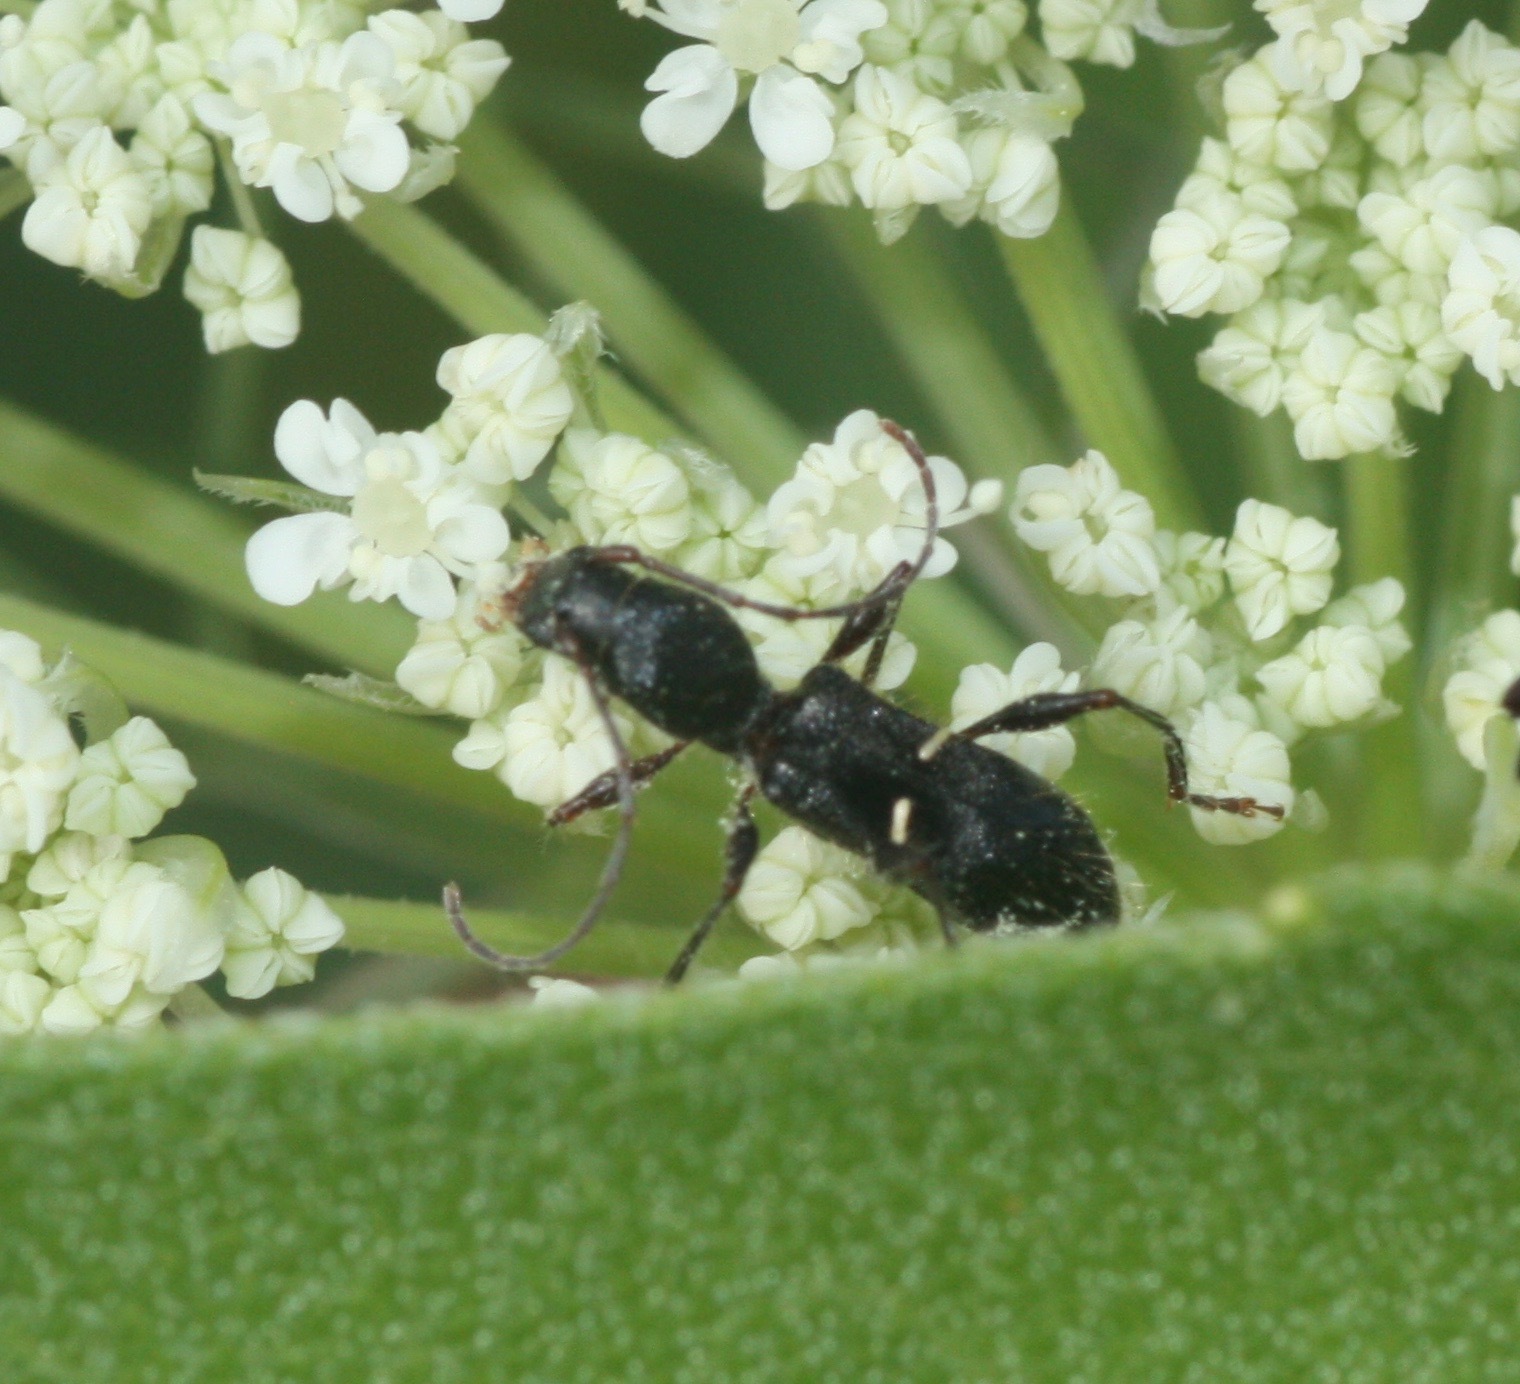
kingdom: Animalia
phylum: Arthropoda
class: Insecta
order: Coleoptera
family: Cerambycidae
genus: Euderces
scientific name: Euderces picipes
